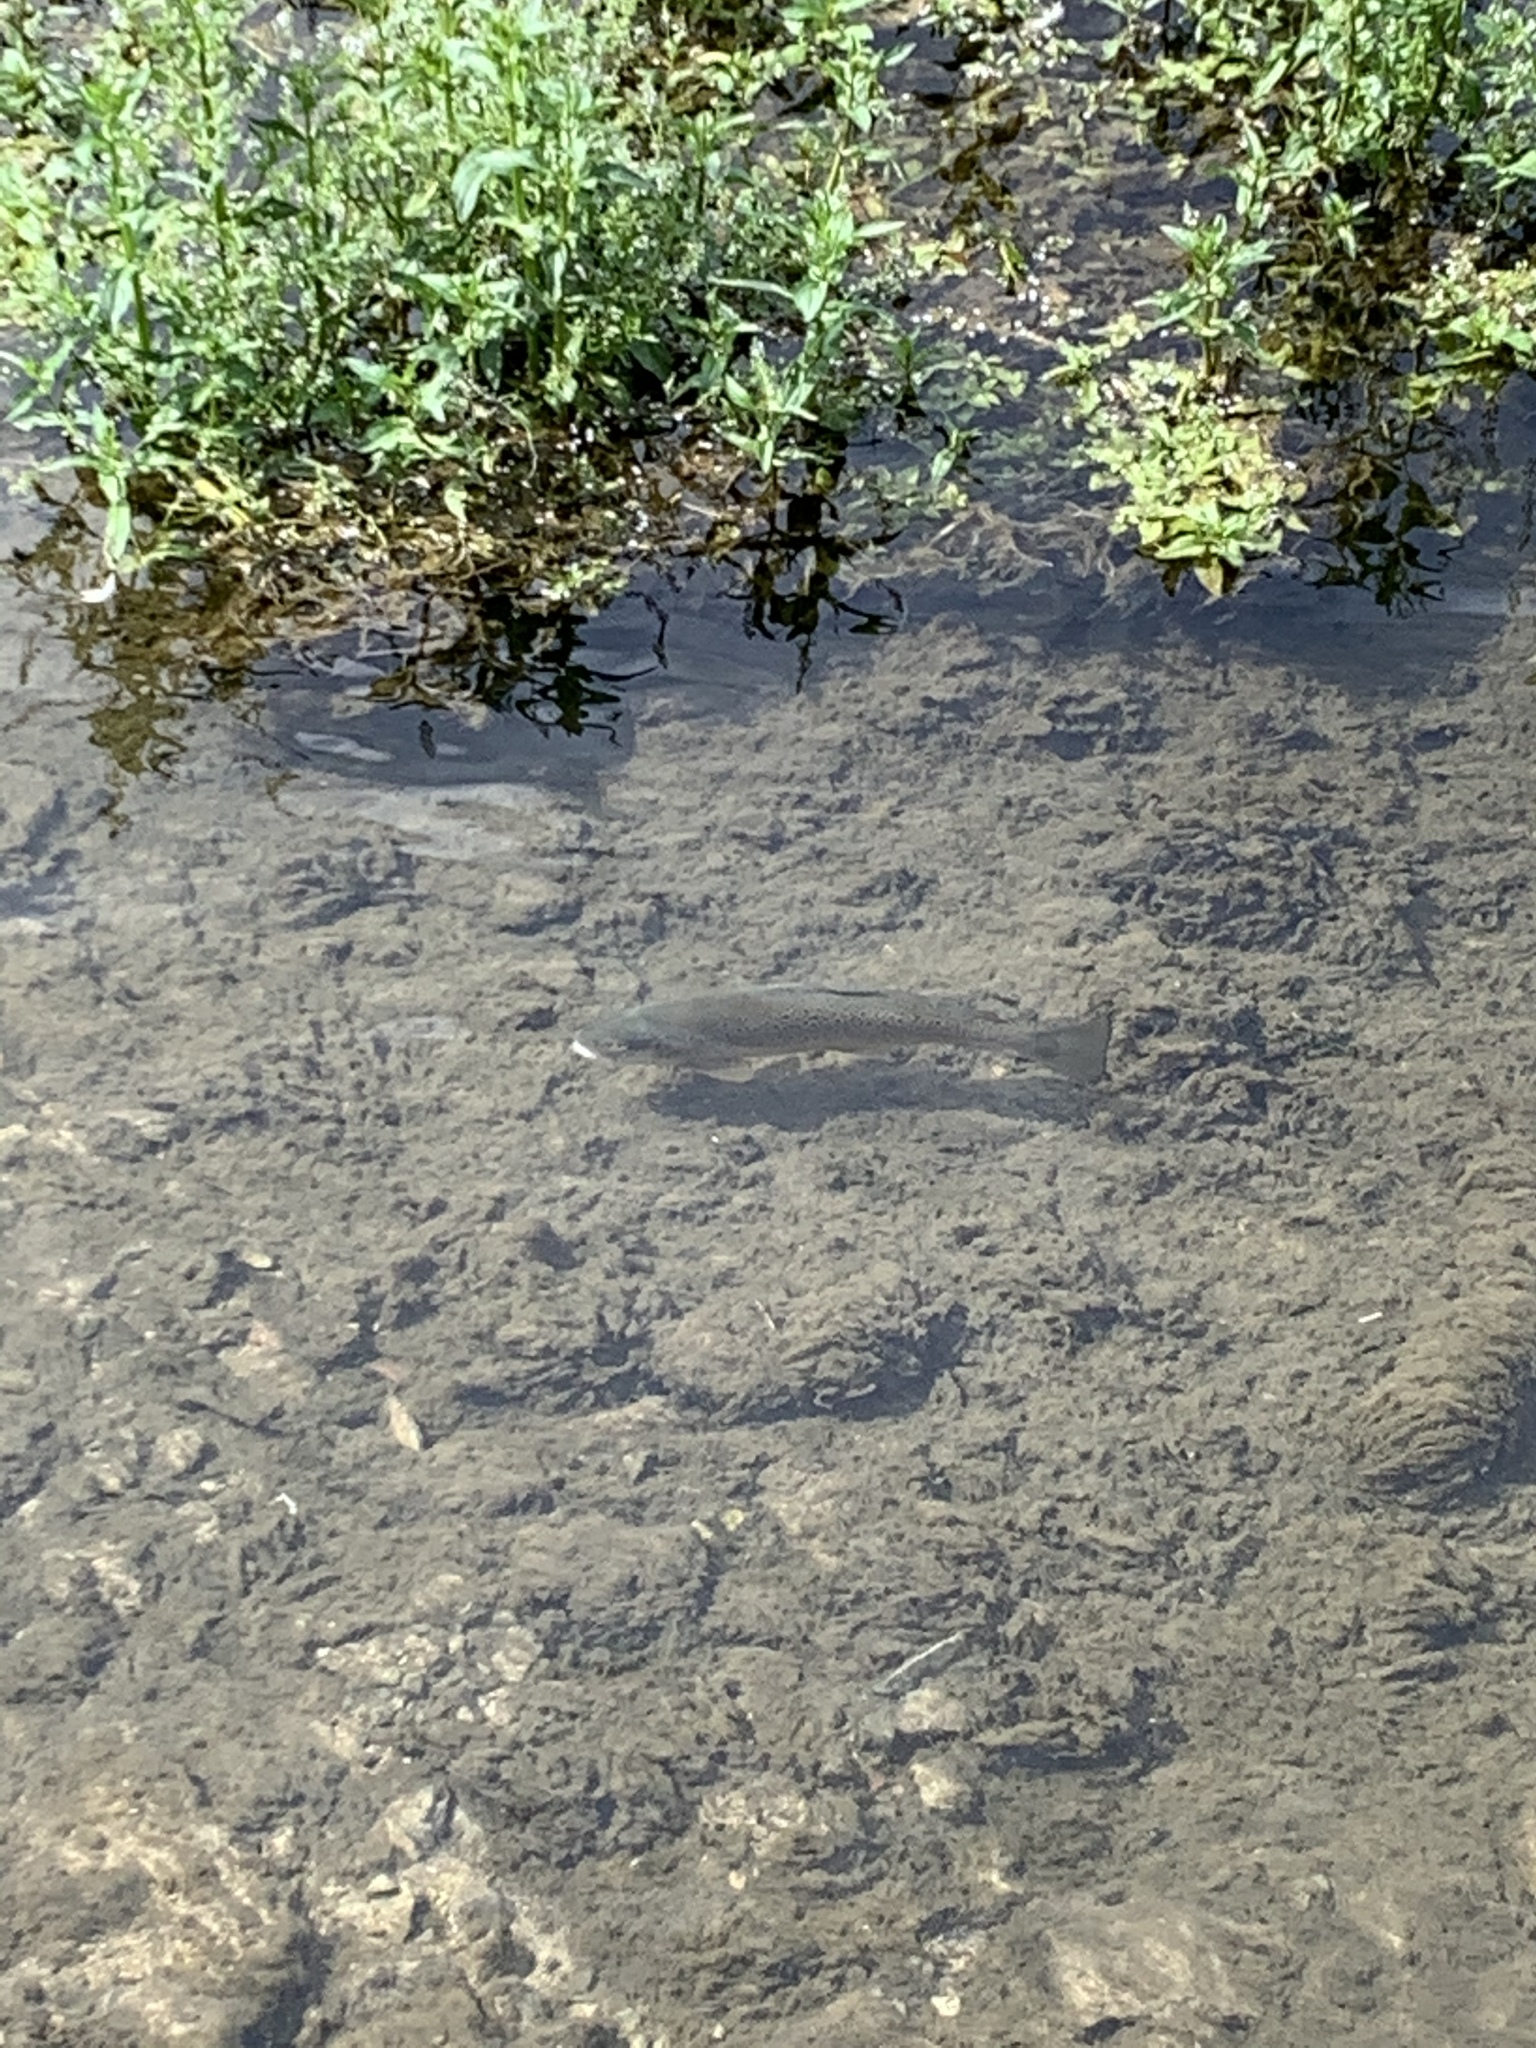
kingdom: Animalia
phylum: Chordata
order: Salmoniformes
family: Salmonidae
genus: Salmo
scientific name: Salmo trutta
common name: Brown trout
